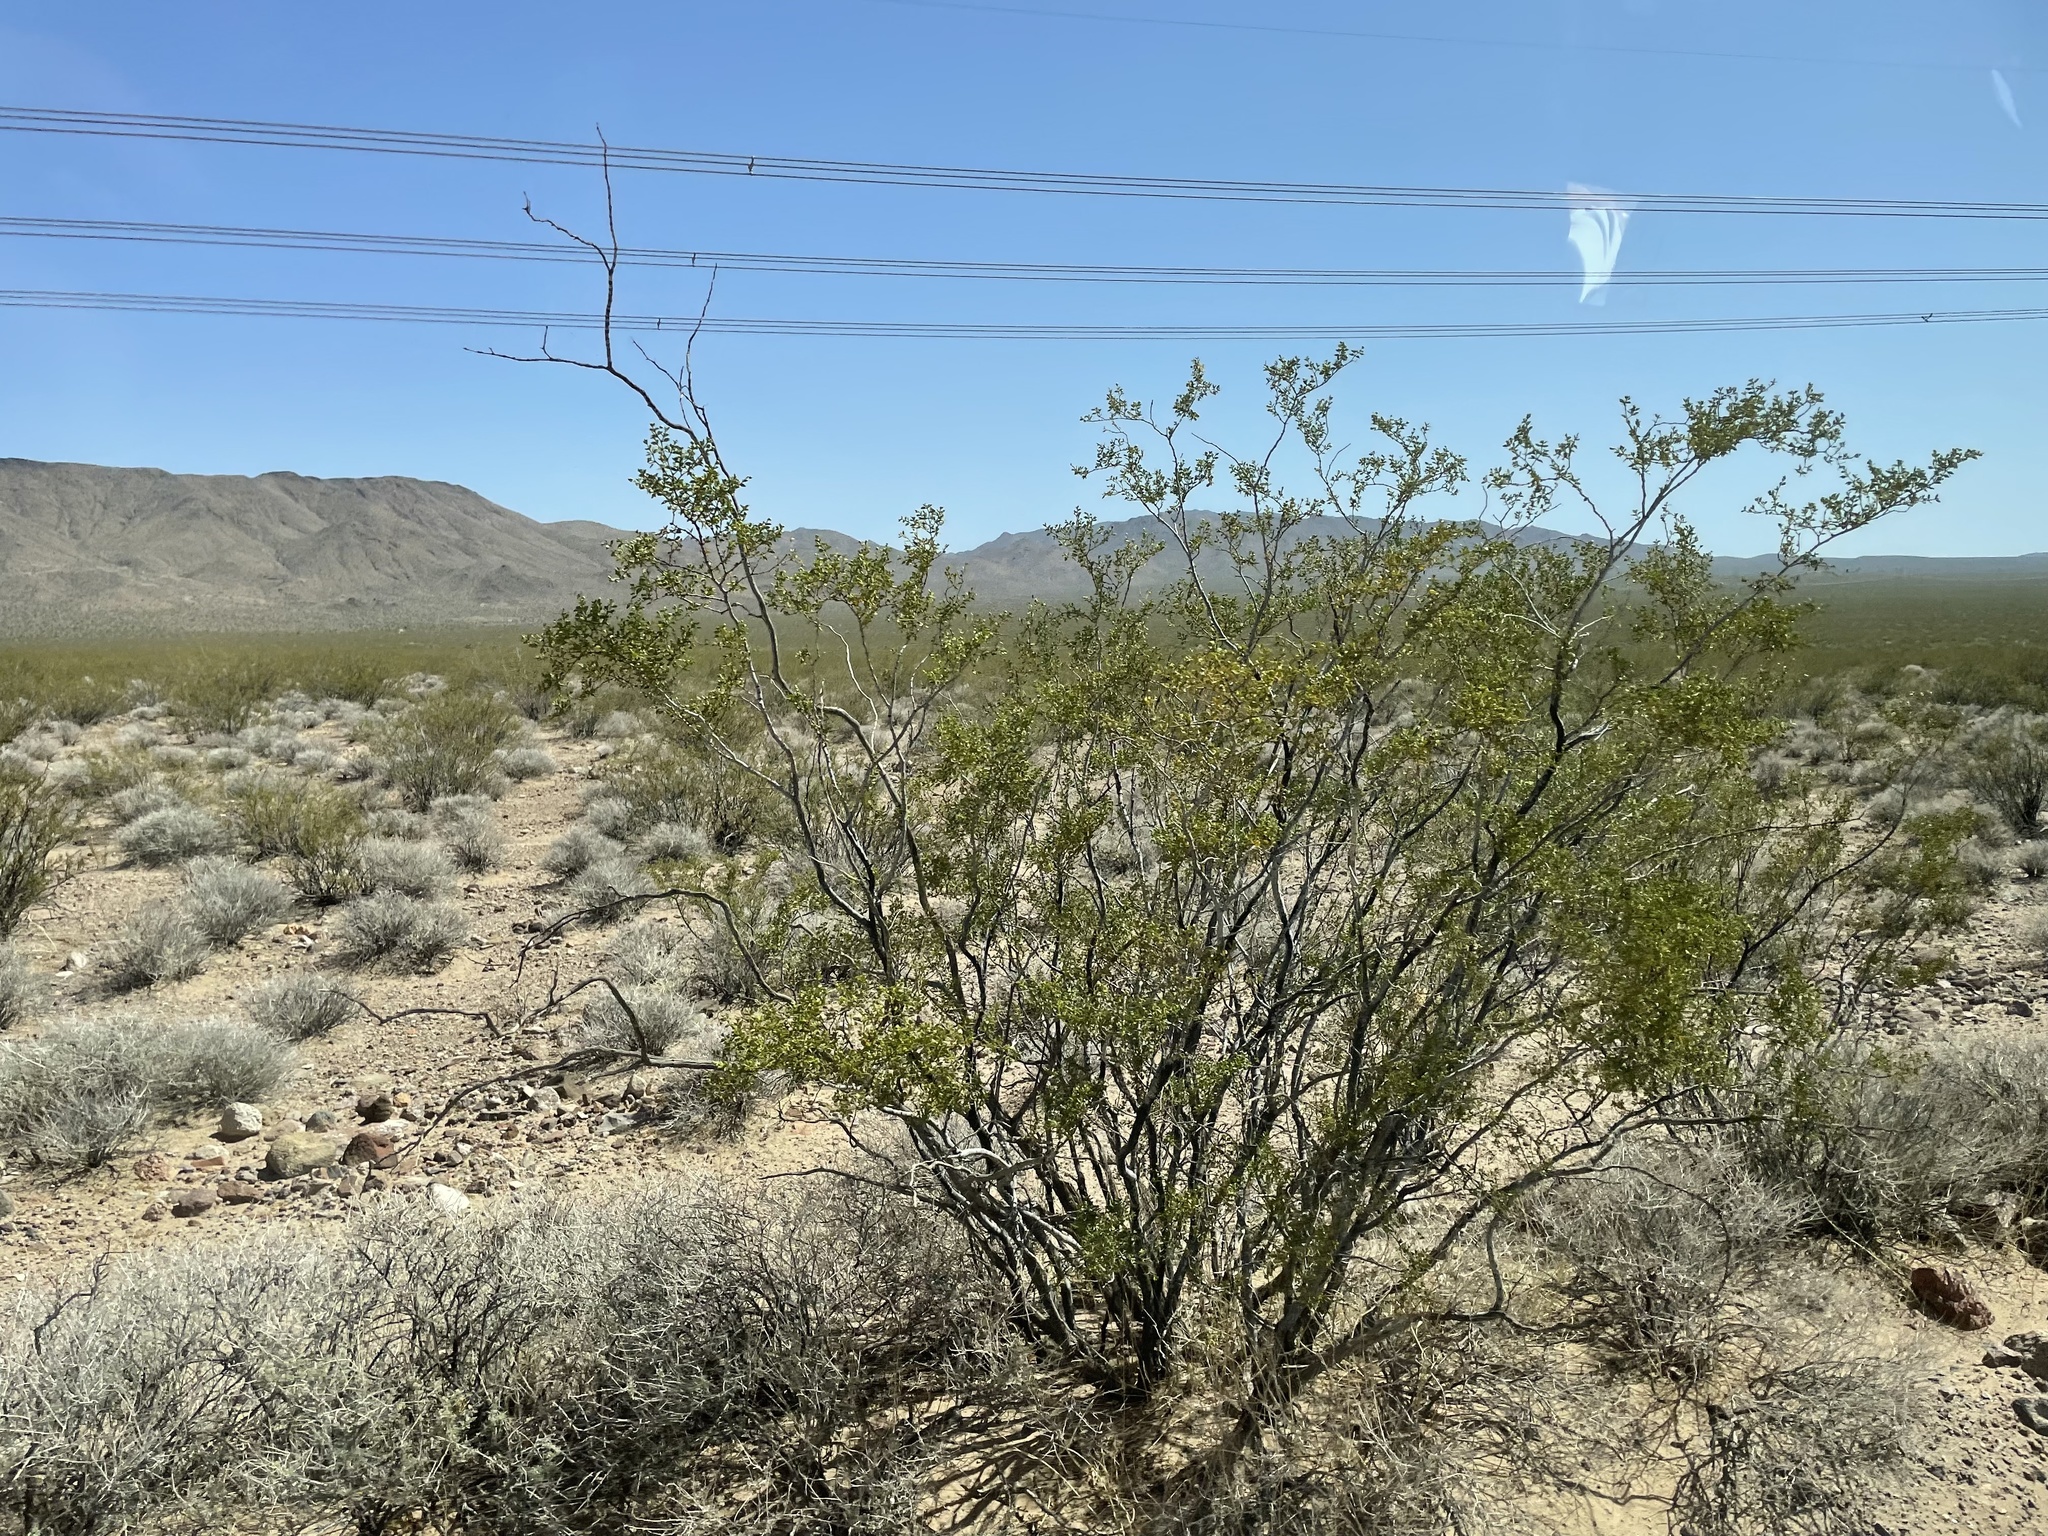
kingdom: Plantae
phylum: Tracheophyta
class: Magnoliopsida
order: Zygophyllales
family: Zygophyllaceae
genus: Larrea
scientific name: Larrea tridentata
